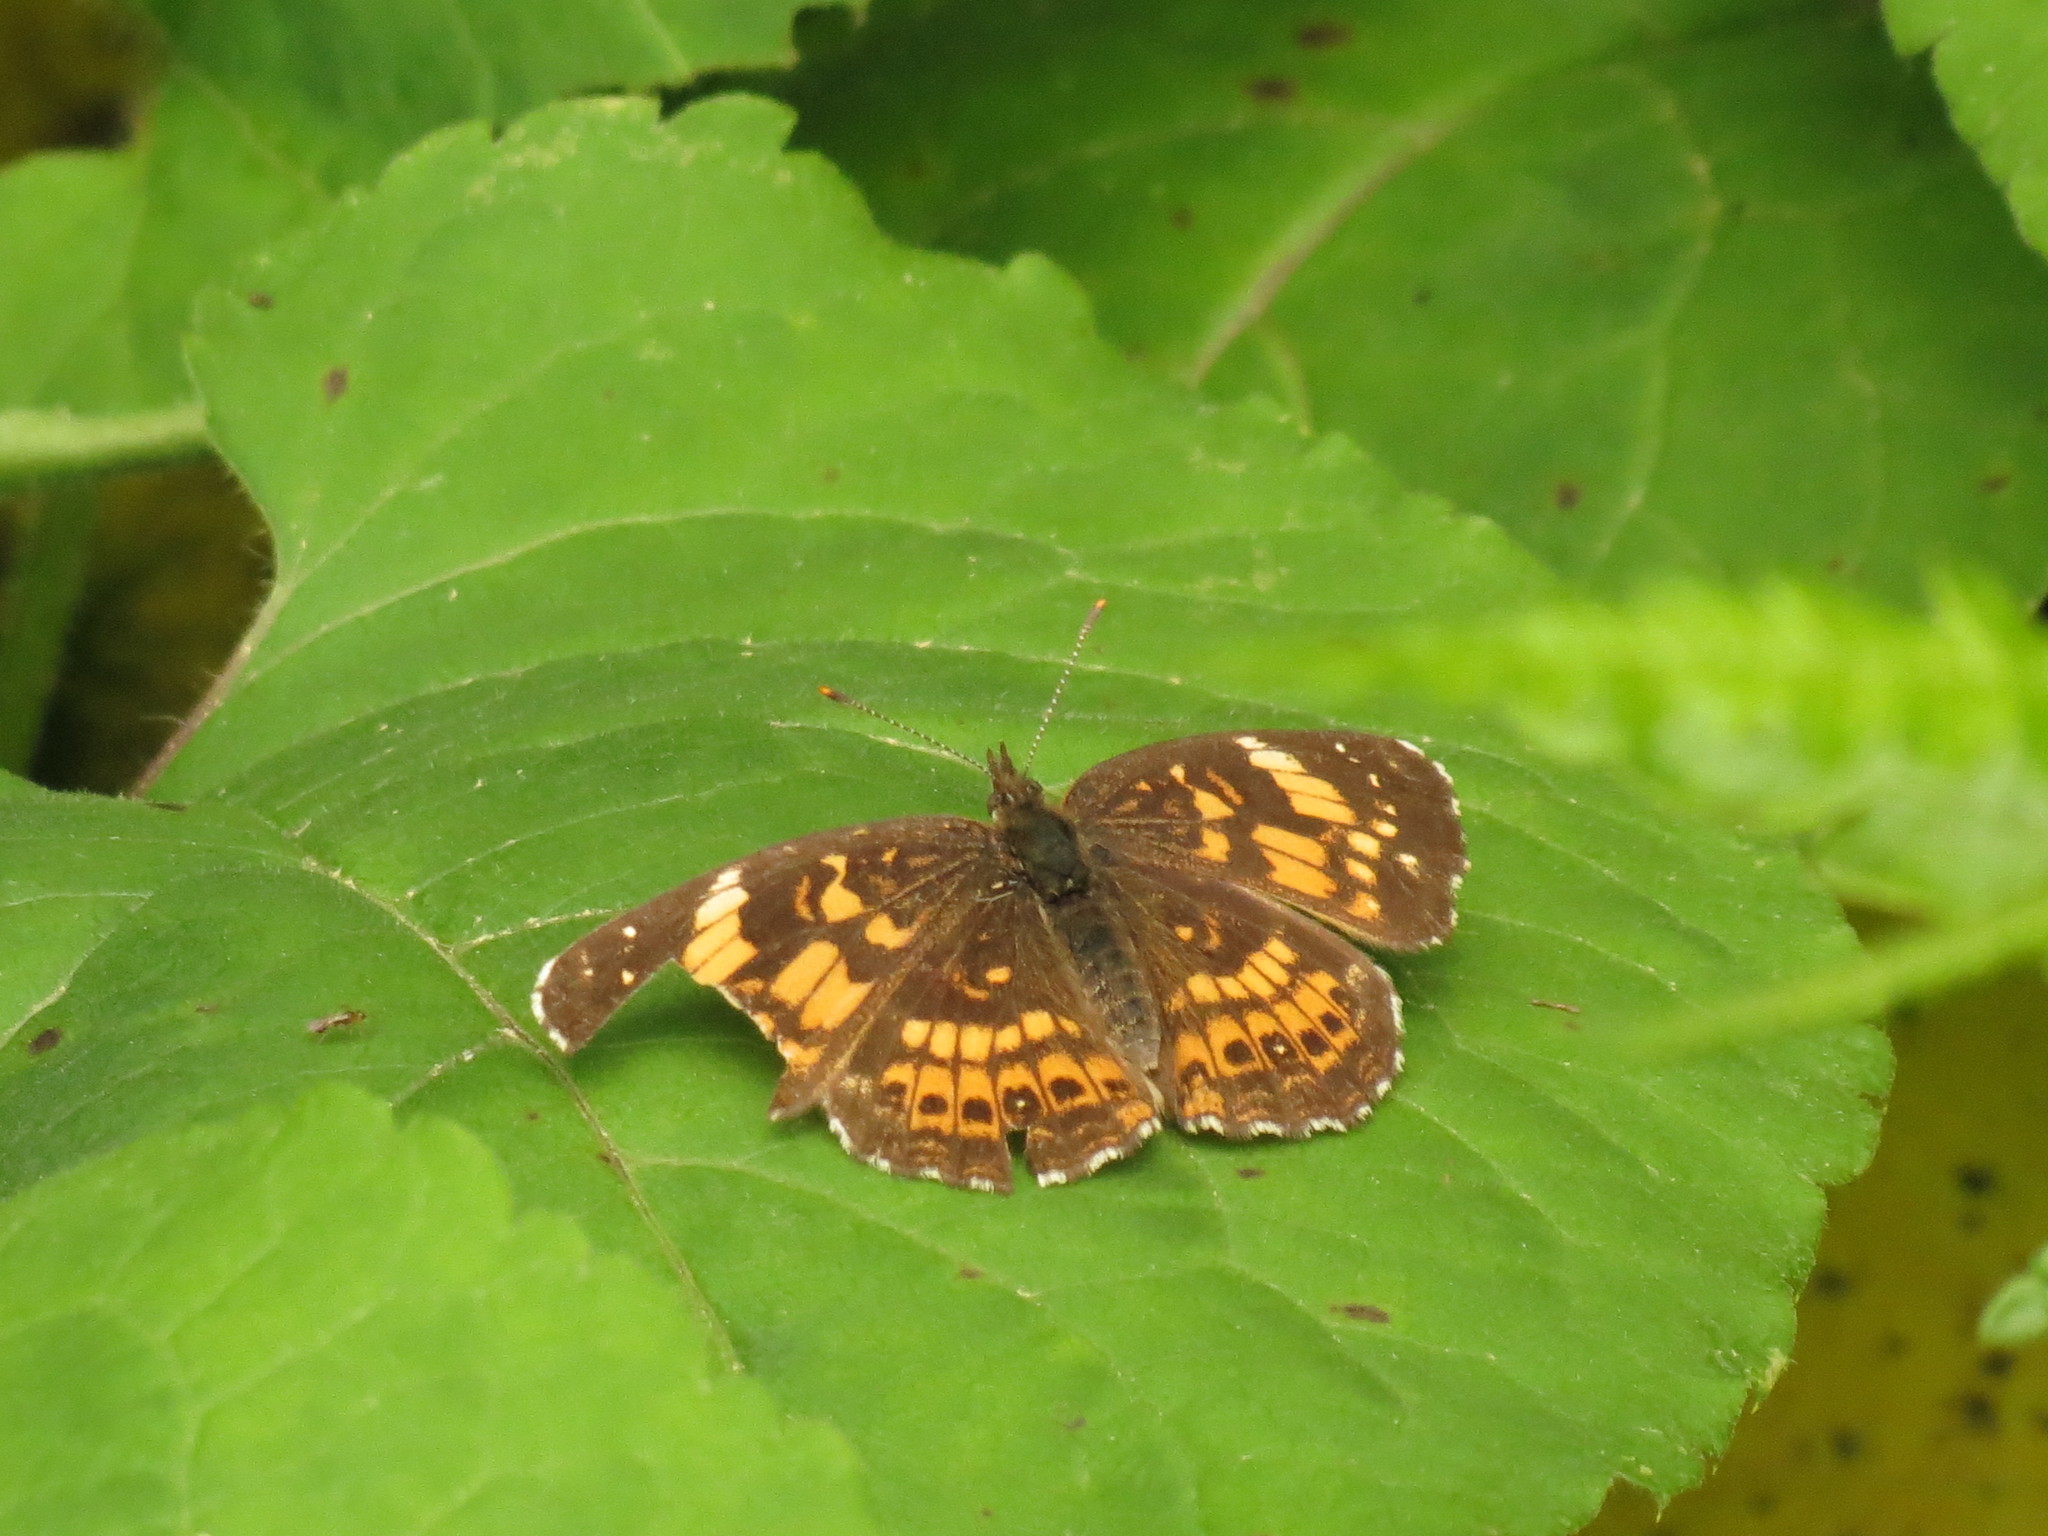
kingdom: Animalia
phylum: Arthropoda
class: Insecta
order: Lepidoptera
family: Nymphalidae
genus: Chlosyne
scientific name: Chlosyne nycteis
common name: Silvery checkerspot
